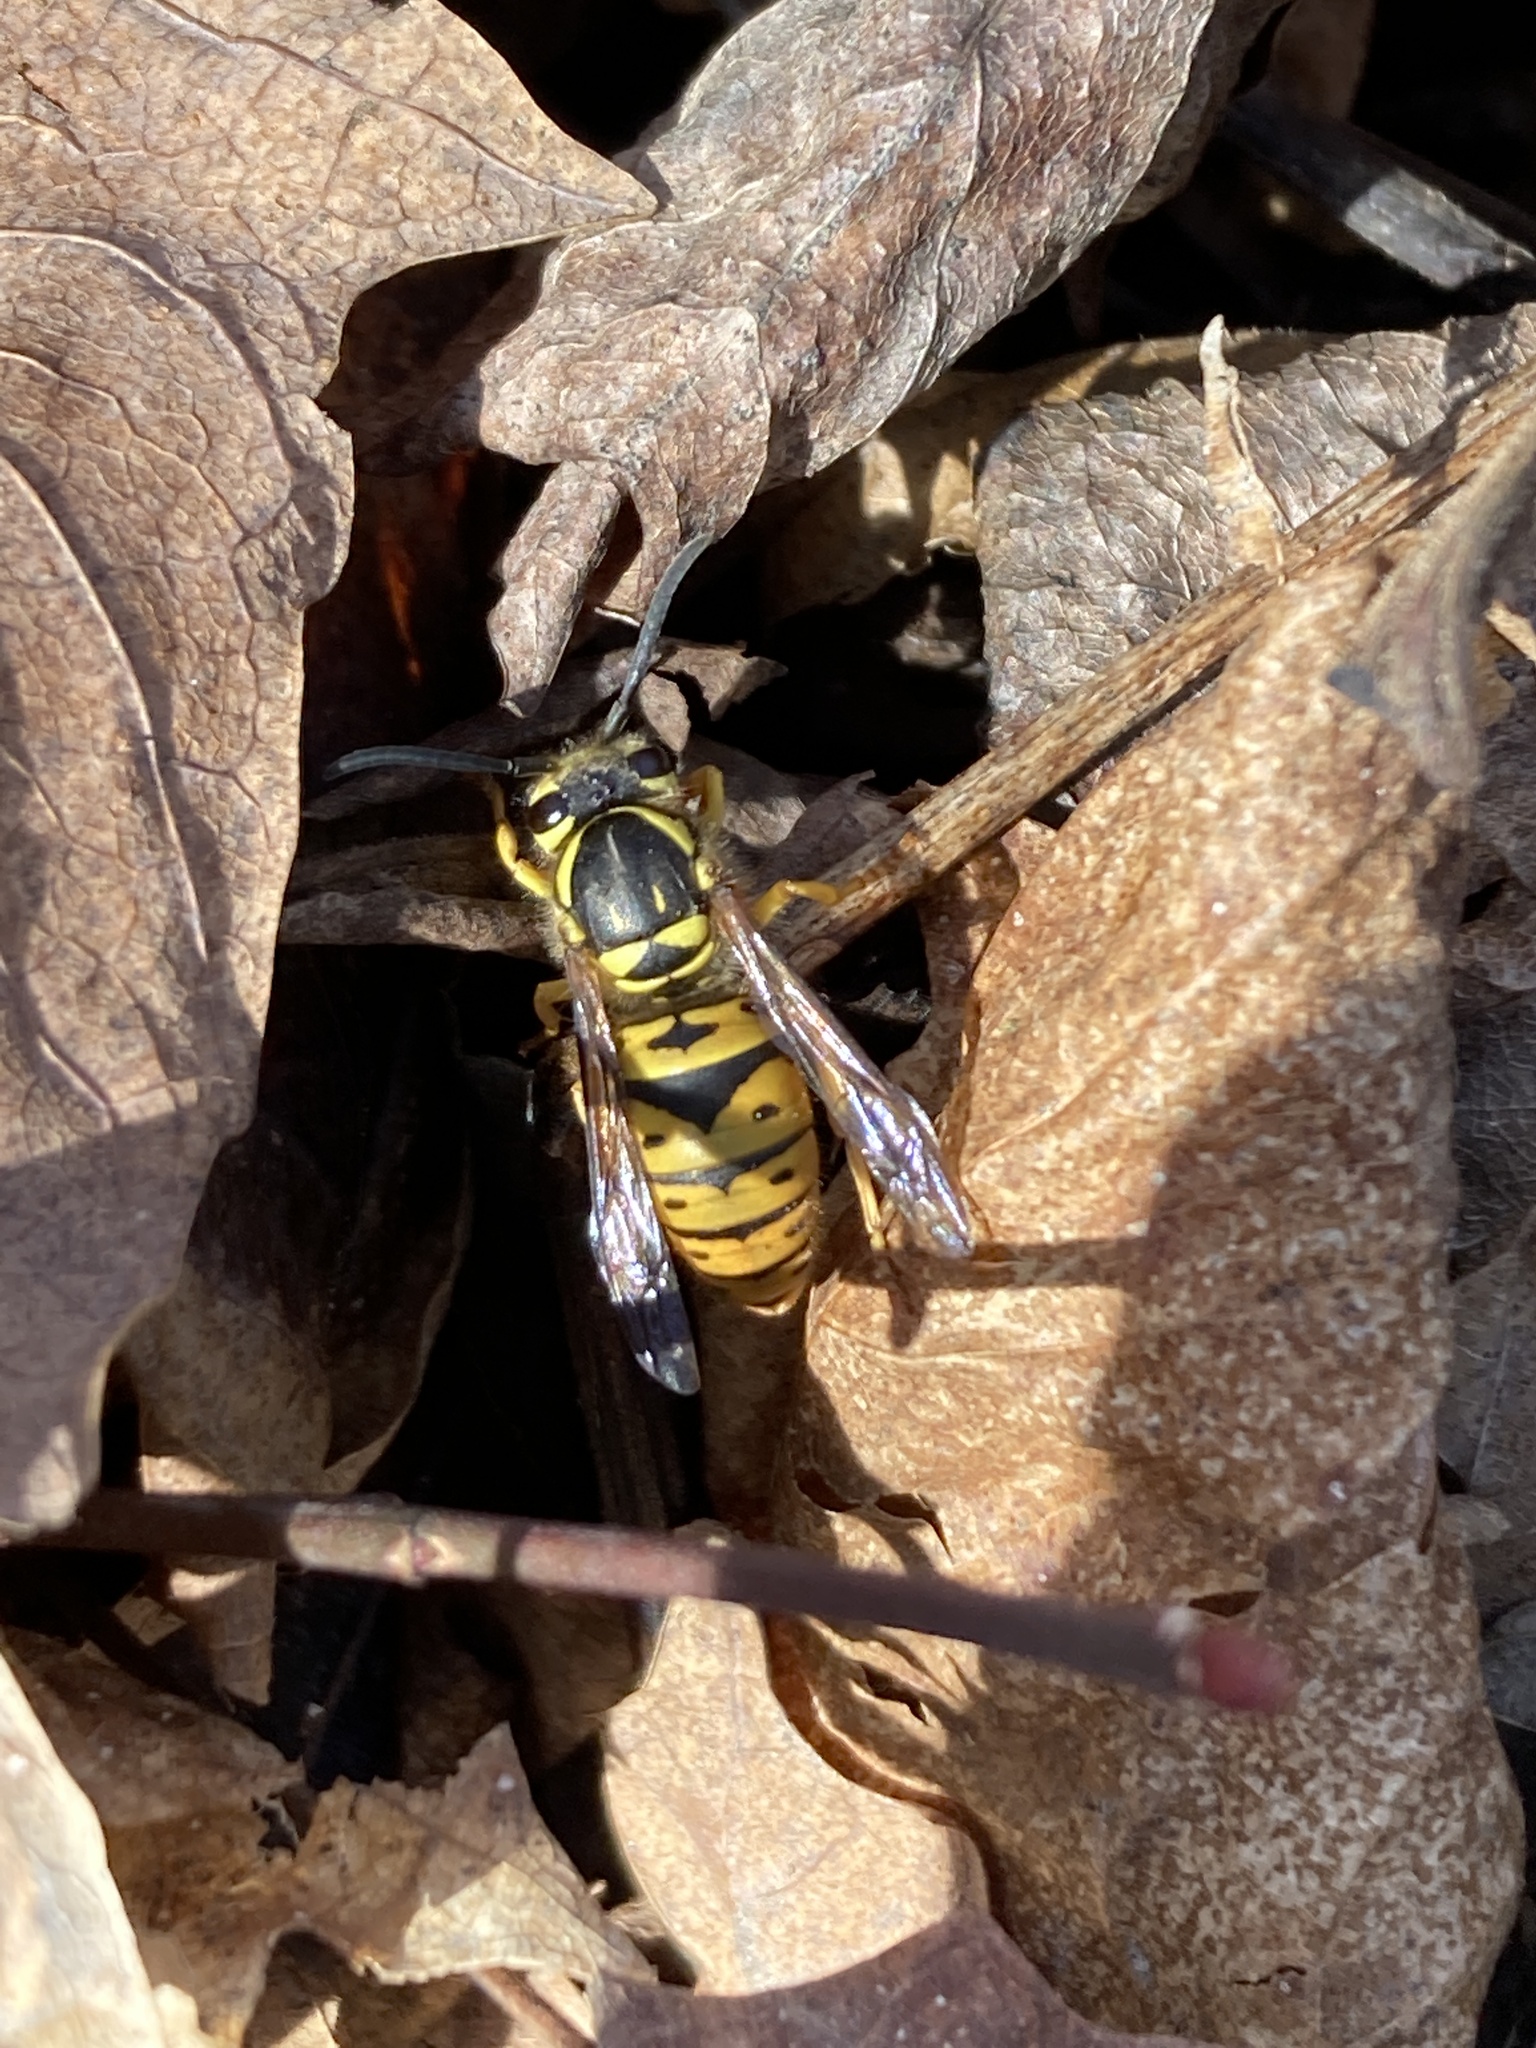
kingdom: Animalia
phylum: Arthropoda
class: Insecta
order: Hymenoptera
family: Vespidae
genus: Vespula
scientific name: Vespula maculifrons
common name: Eastern yellowjacket
